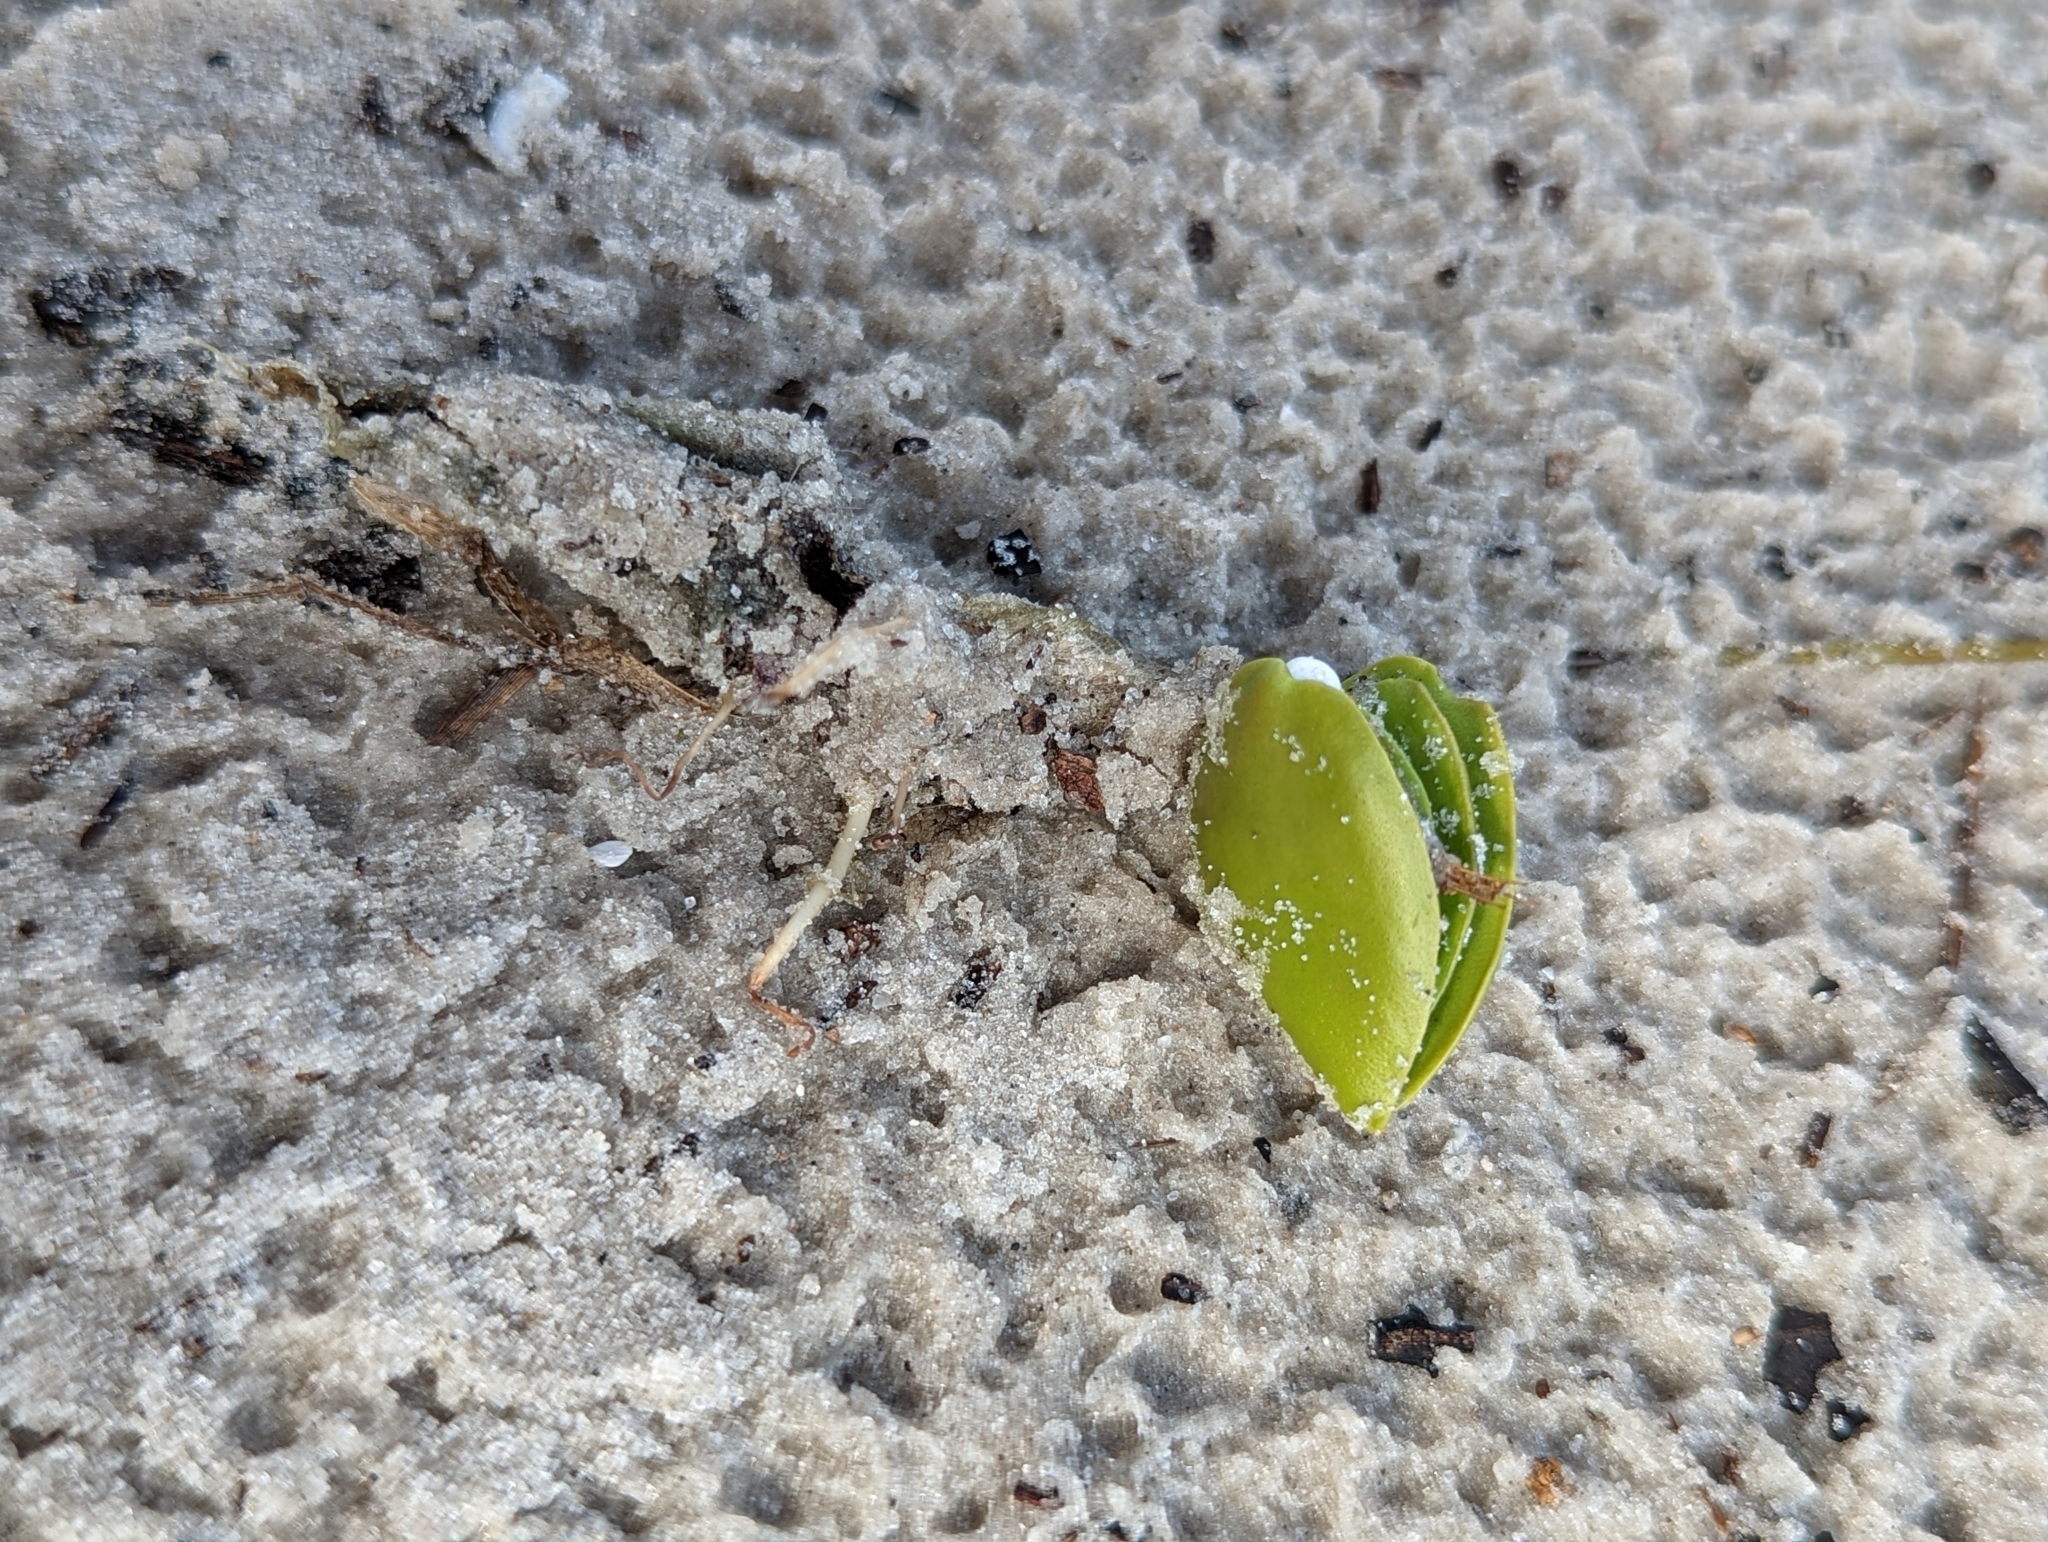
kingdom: Plantae
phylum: Tracheophyta
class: Magnoliopsida
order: Lamiales
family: Acanthaceae
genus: Avicennia
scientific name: Avicennia germinans
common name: Black mangrove
